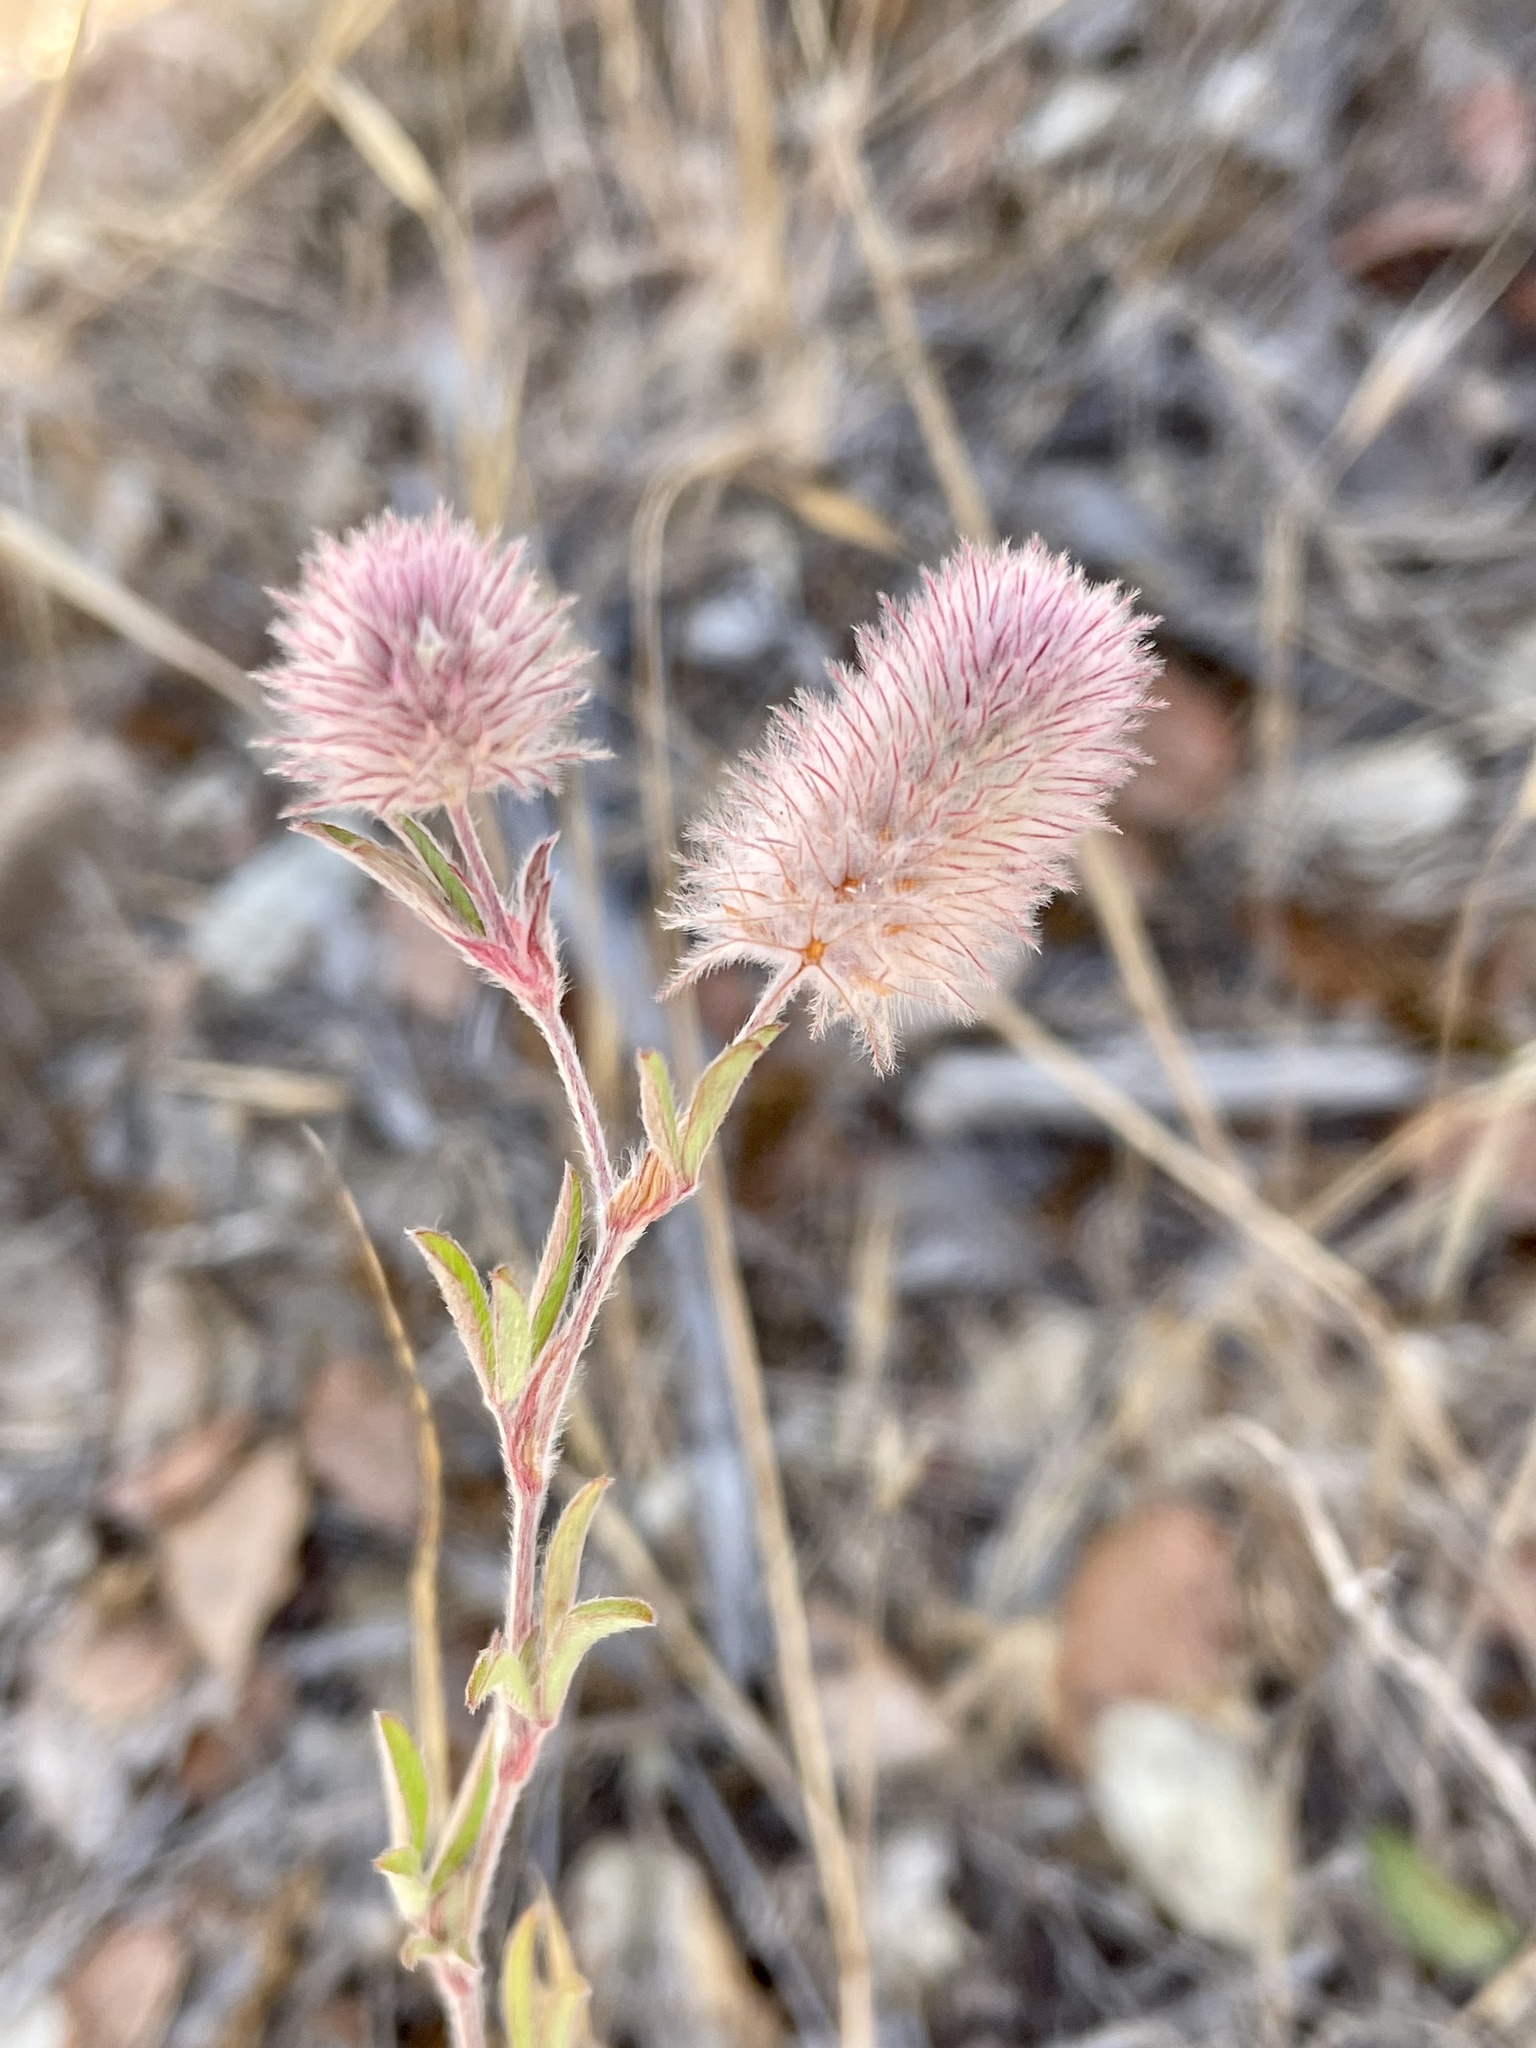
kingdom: Plantae
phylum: Tracheophyta
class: Magnoliopsida
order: Fabales
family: Fabaceae
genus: Trifolium
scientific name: Trifolium arvense
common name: Hare's-foot clover
